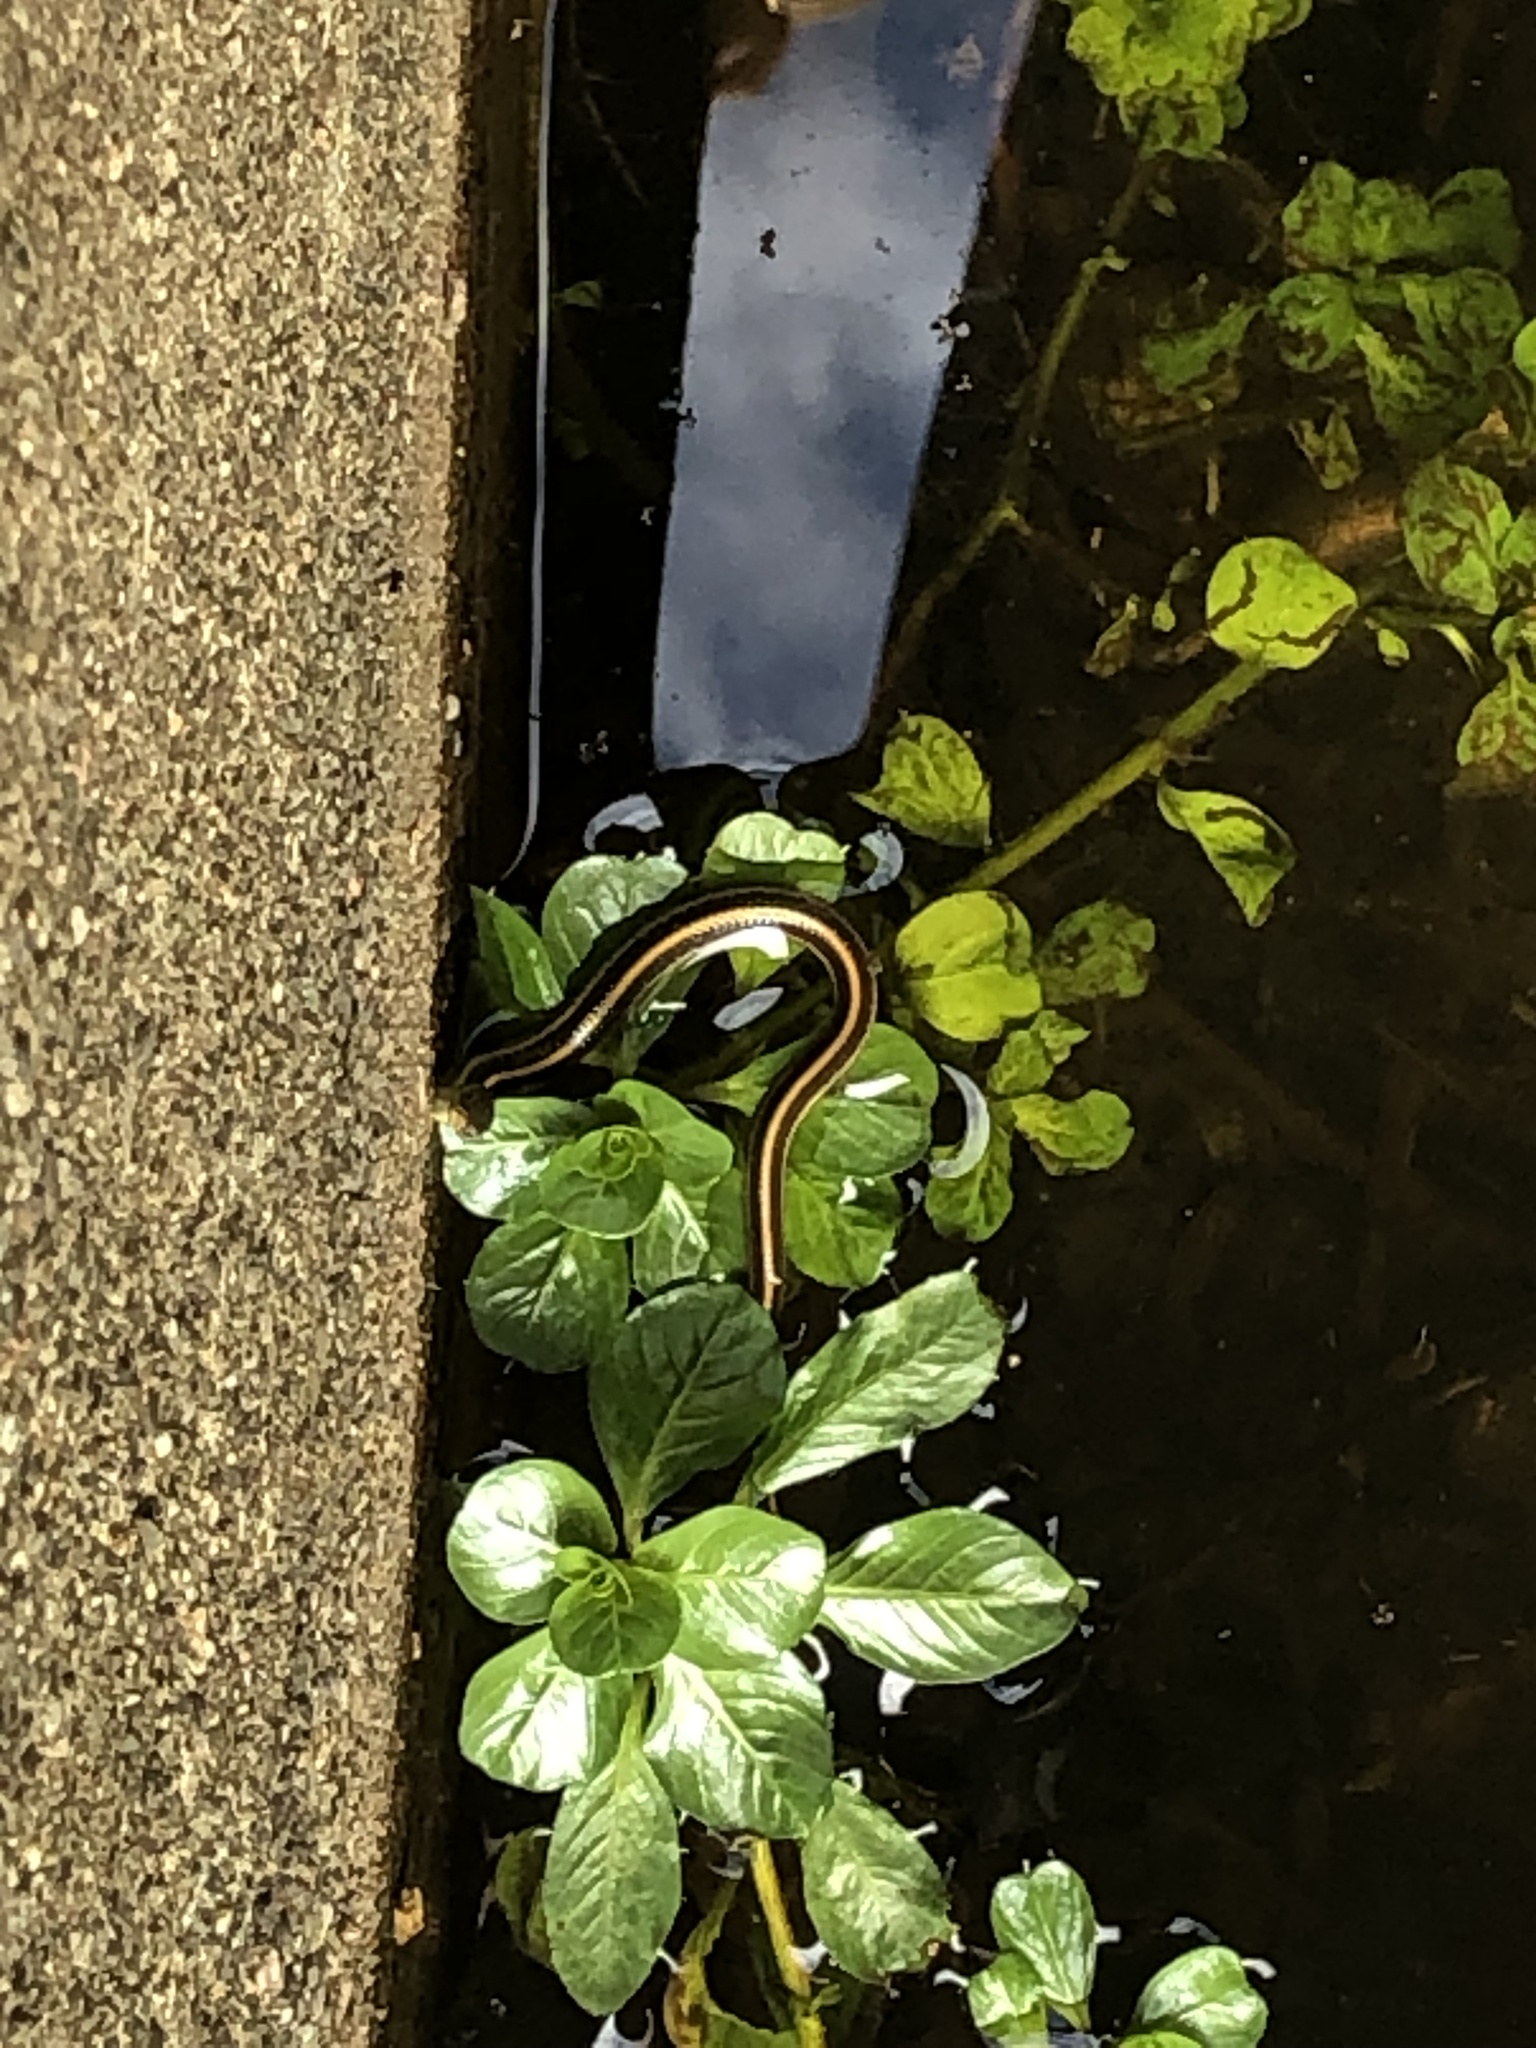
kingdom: Animalia
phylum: Chordata
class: Squamata
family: Colubridae
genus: Thamnophis
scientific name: Thamnophis atratus
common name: Pacific coast aquatic garter snake
